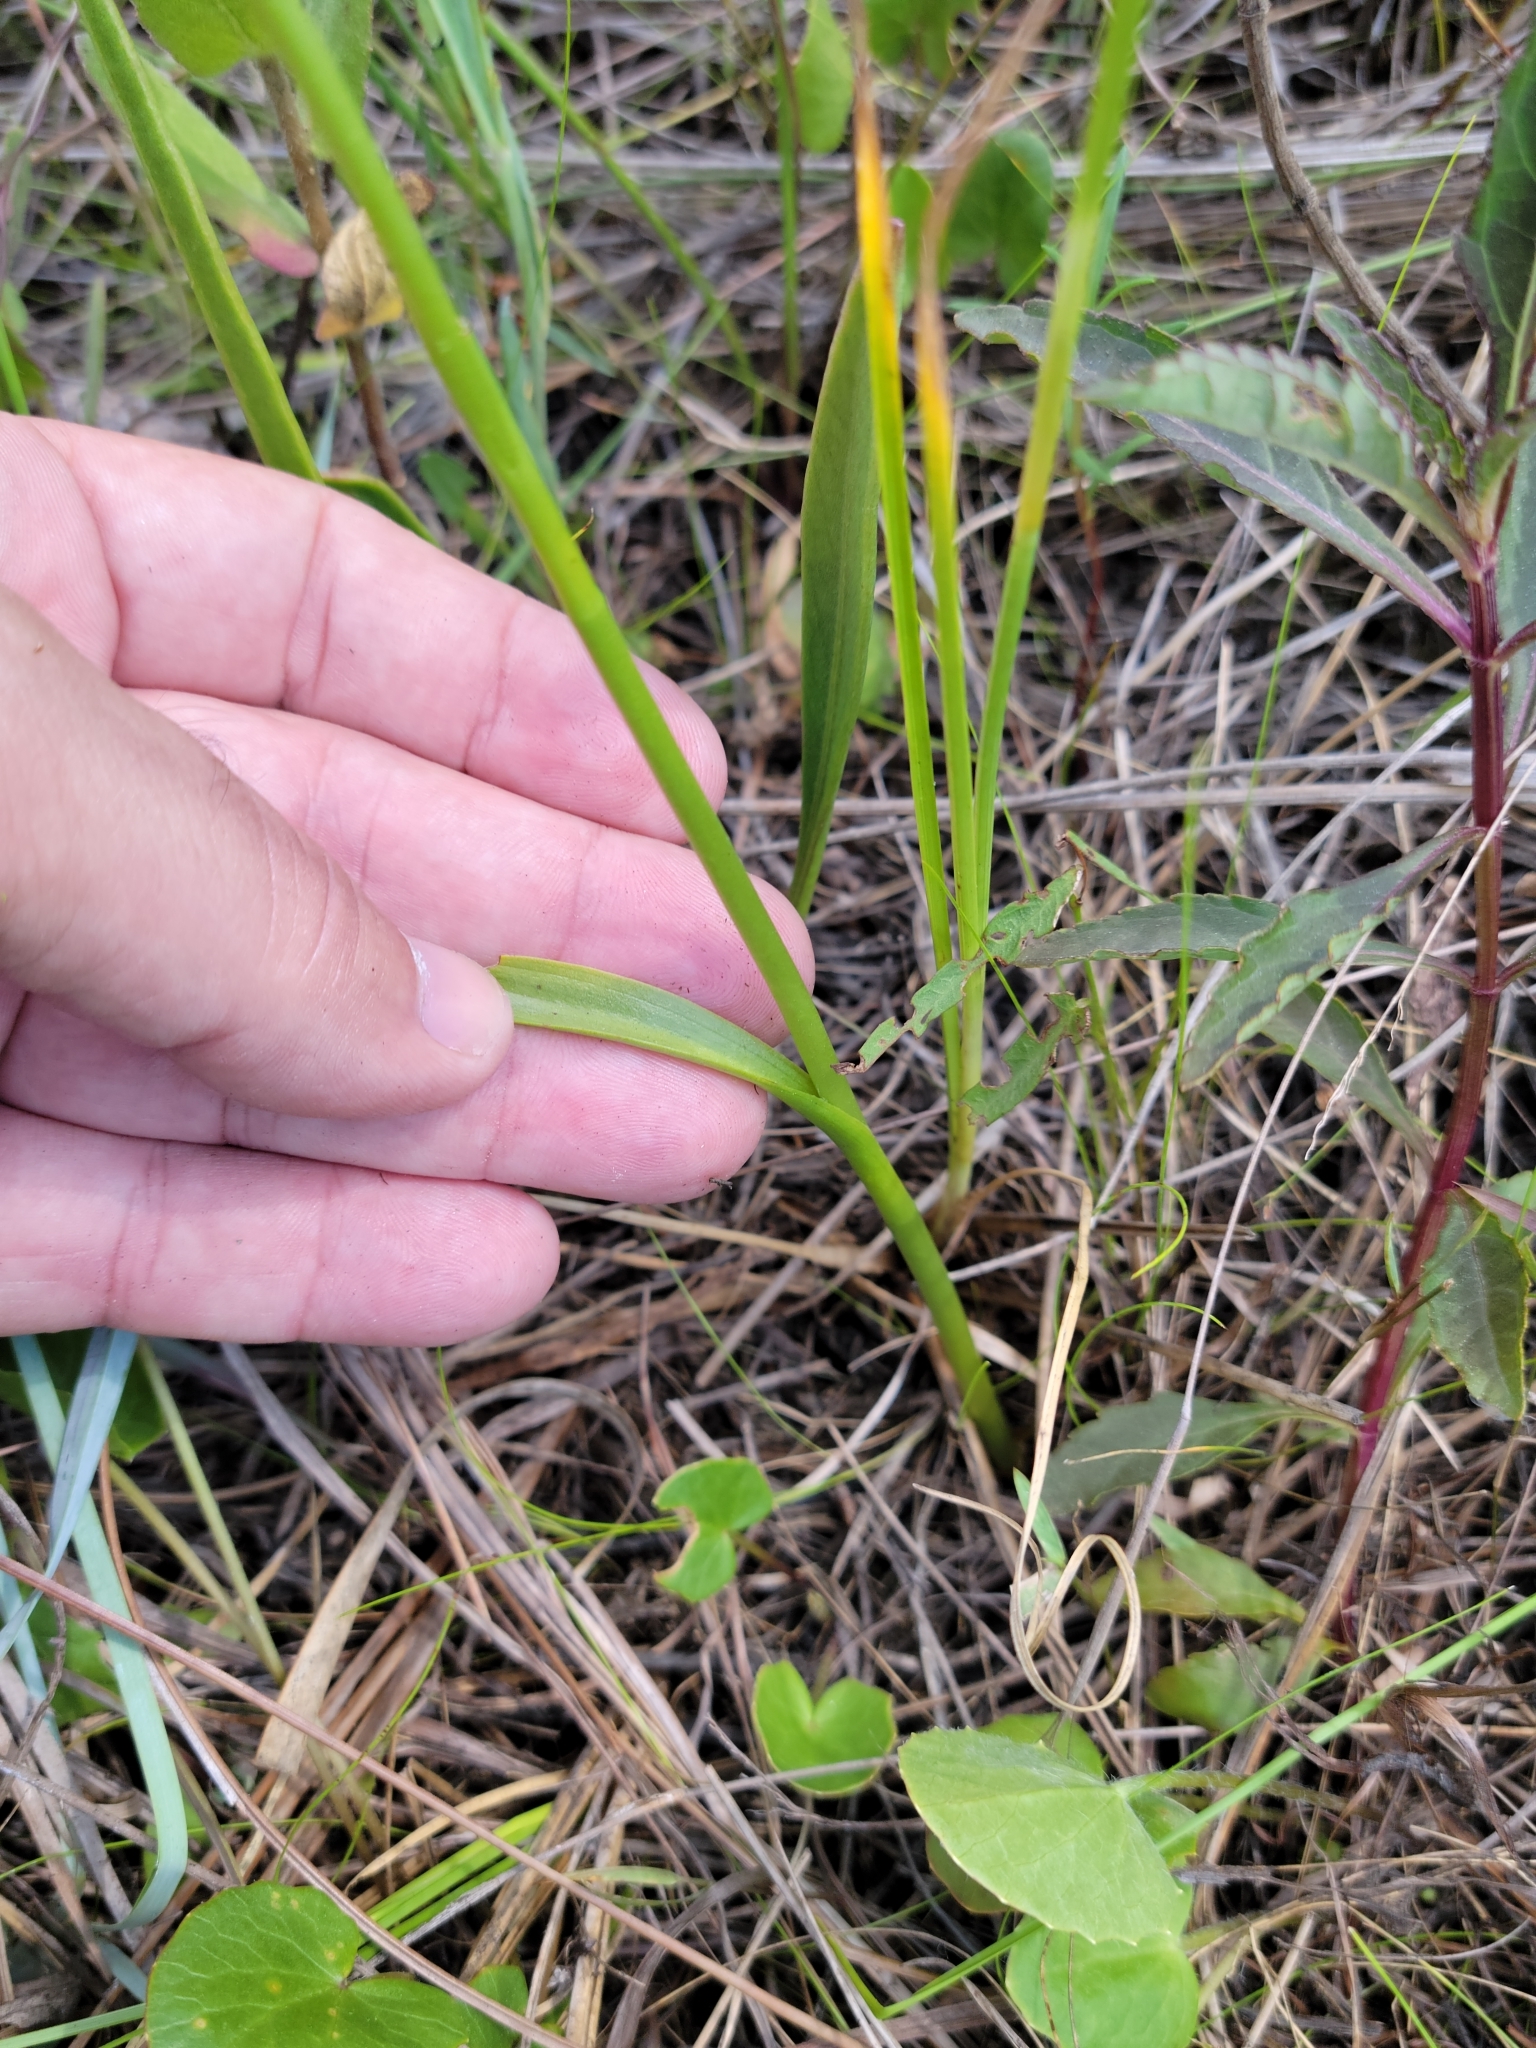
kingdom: Plantae
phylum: Tracheophyta
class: Liliopsida
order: Asparagales
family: Orchidaceae
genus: Spiranthes
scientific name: Spiranthes laciniata
